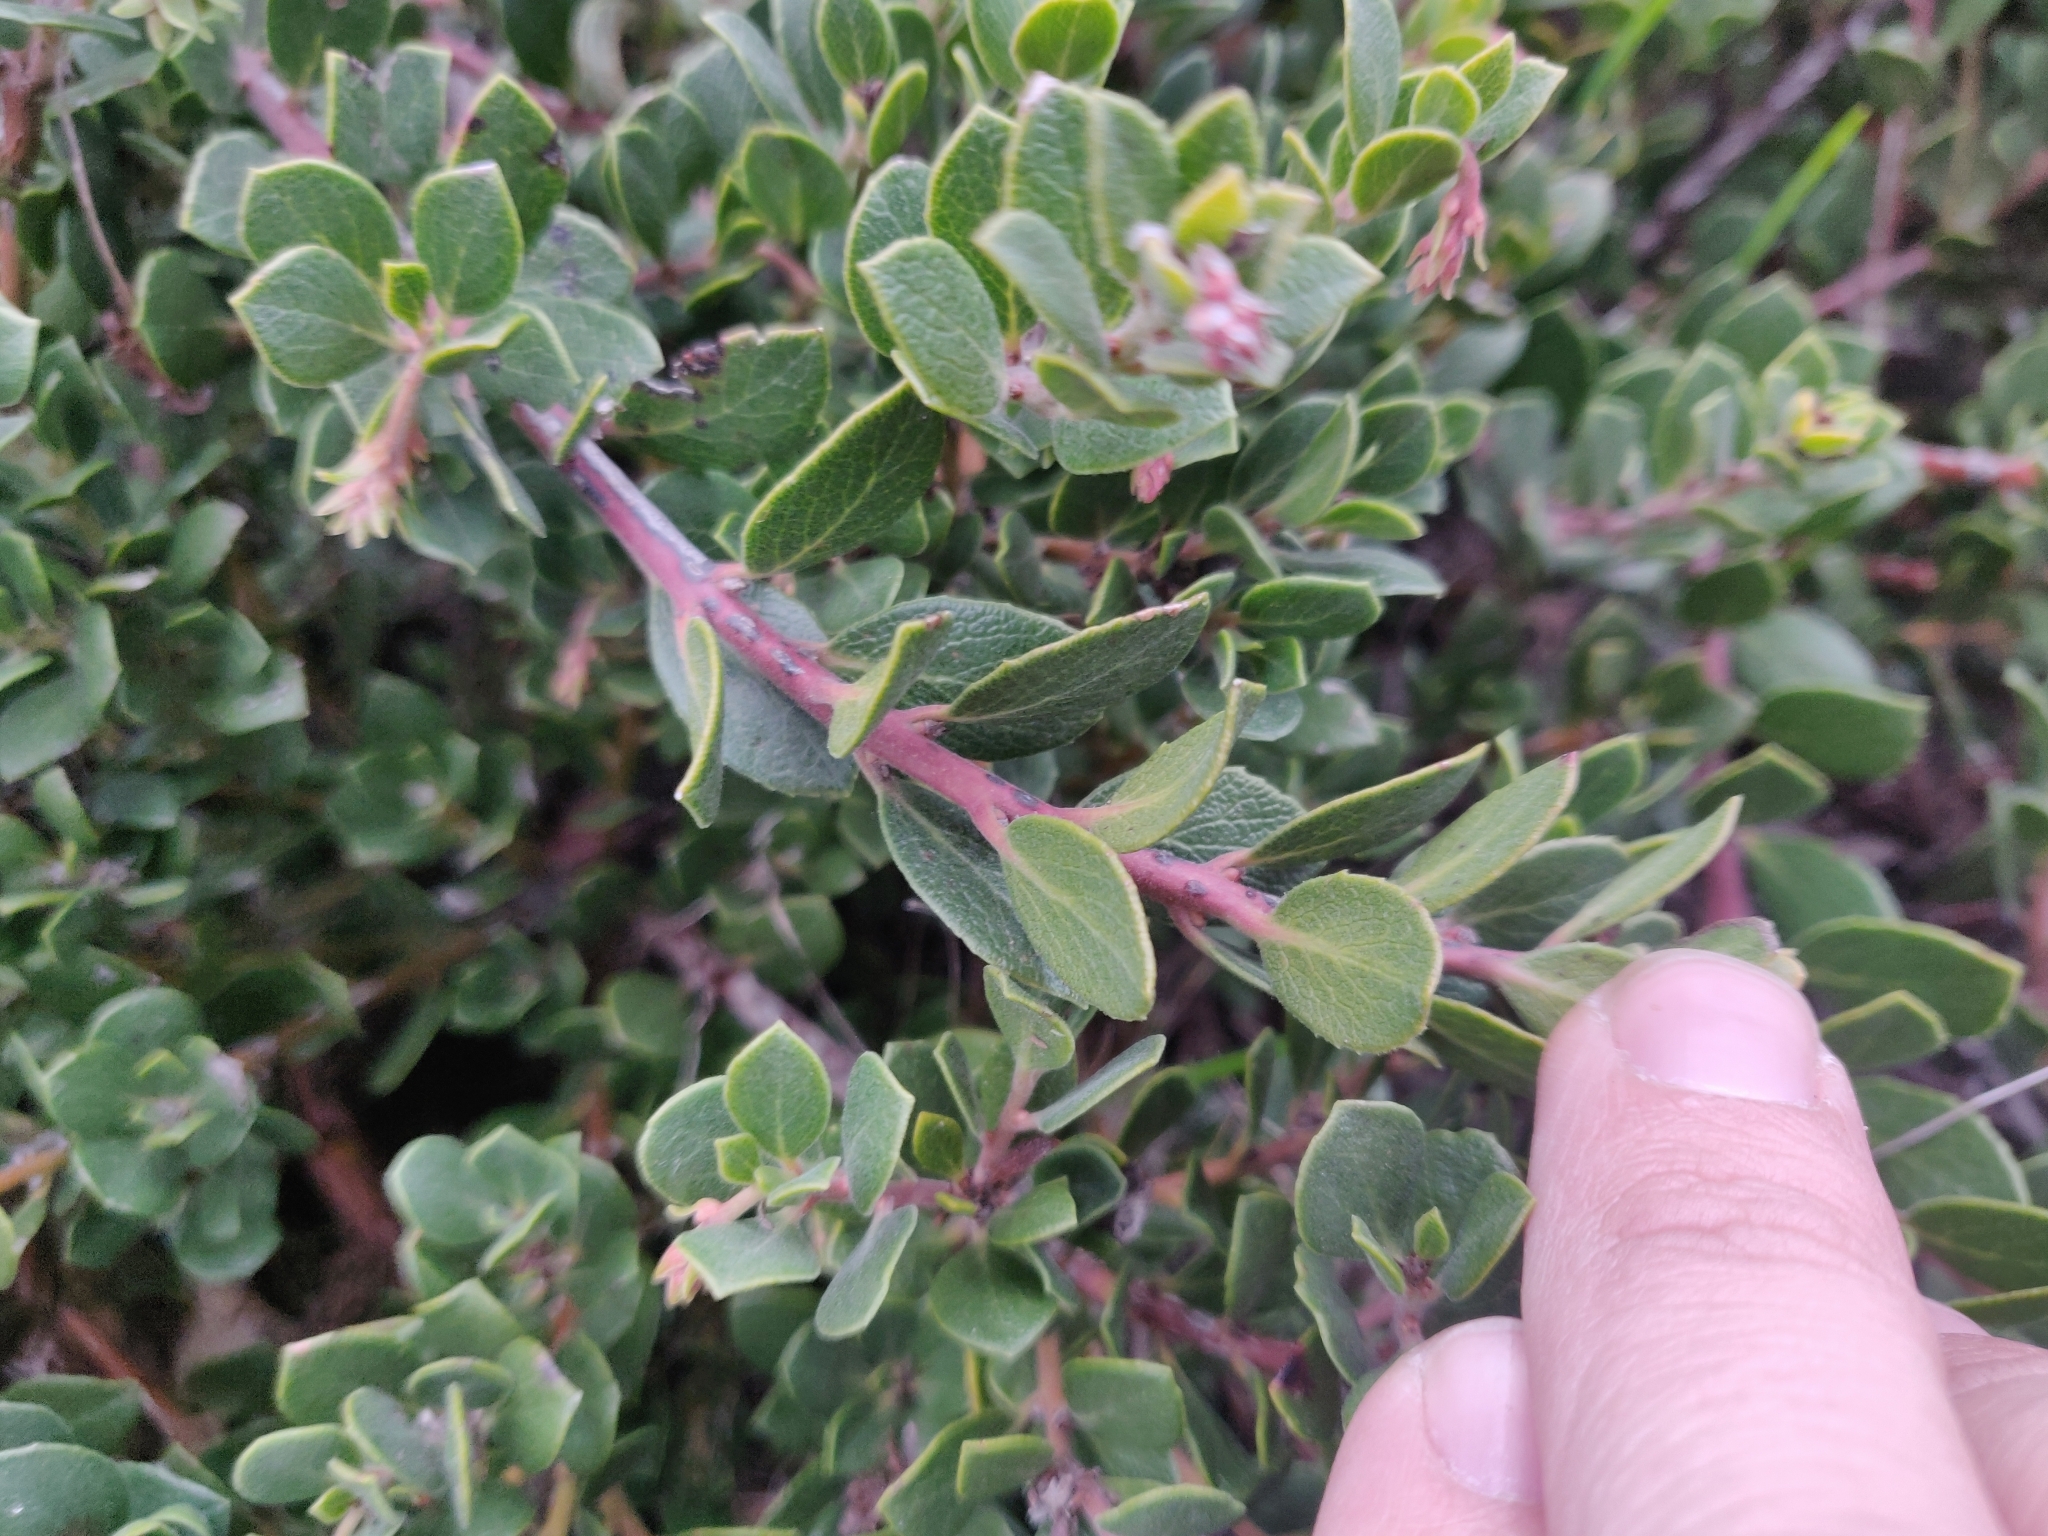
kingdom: Plantae
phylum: Tracheophyta
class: Magnoliopsida
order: Ericales
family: Ericaceae
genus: Arctostaphylos
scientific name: Arctostaphylos pacifica
